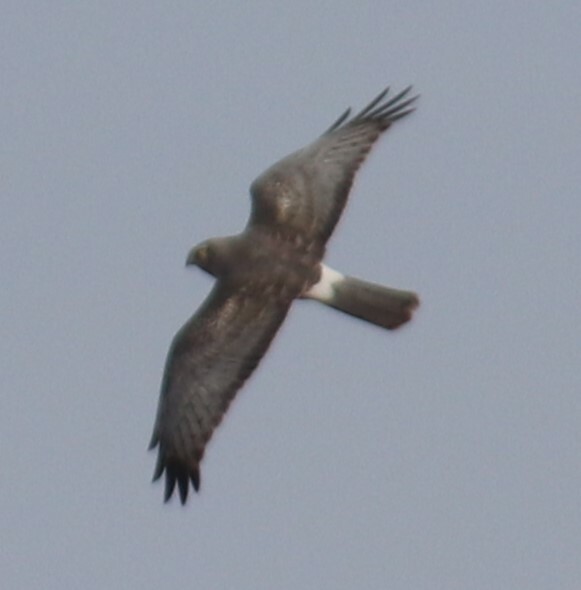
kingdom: Animalia
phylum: Chordata
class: Aves
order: Accipitriformes
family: Accipitridae
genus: Circus
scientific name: Circus cyaneus
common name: Hen harrier
